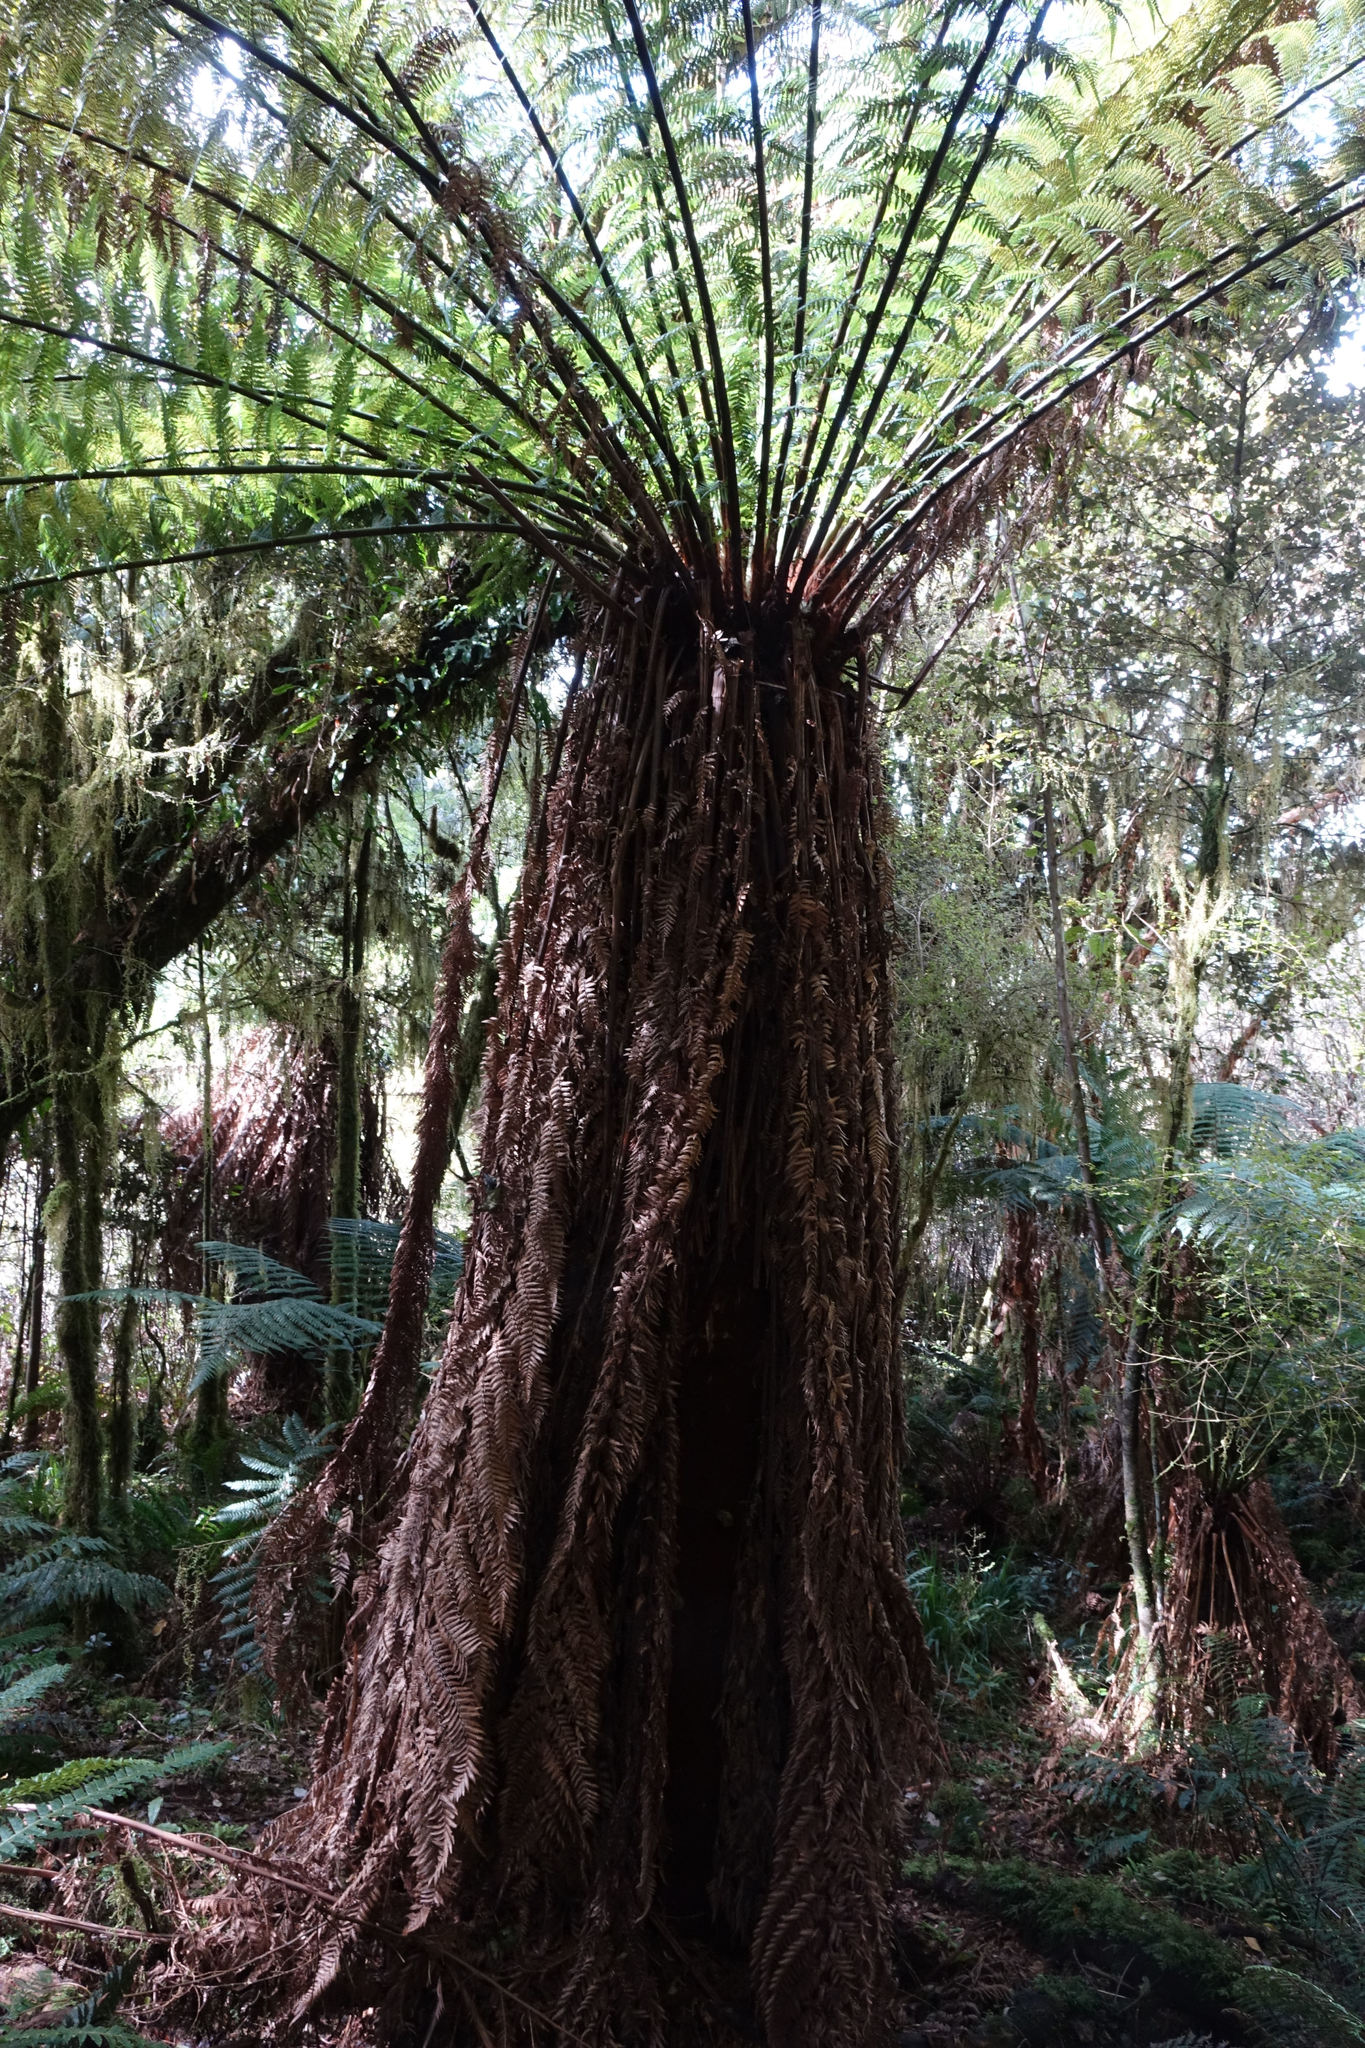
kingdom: Plantae
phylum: Tracheophyta
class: Polypodiopsida
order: Cyatheales
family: Dicksoniaceae
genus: Dicksonia
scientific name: Dicksonia fibrosa
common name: Golden tree fern
